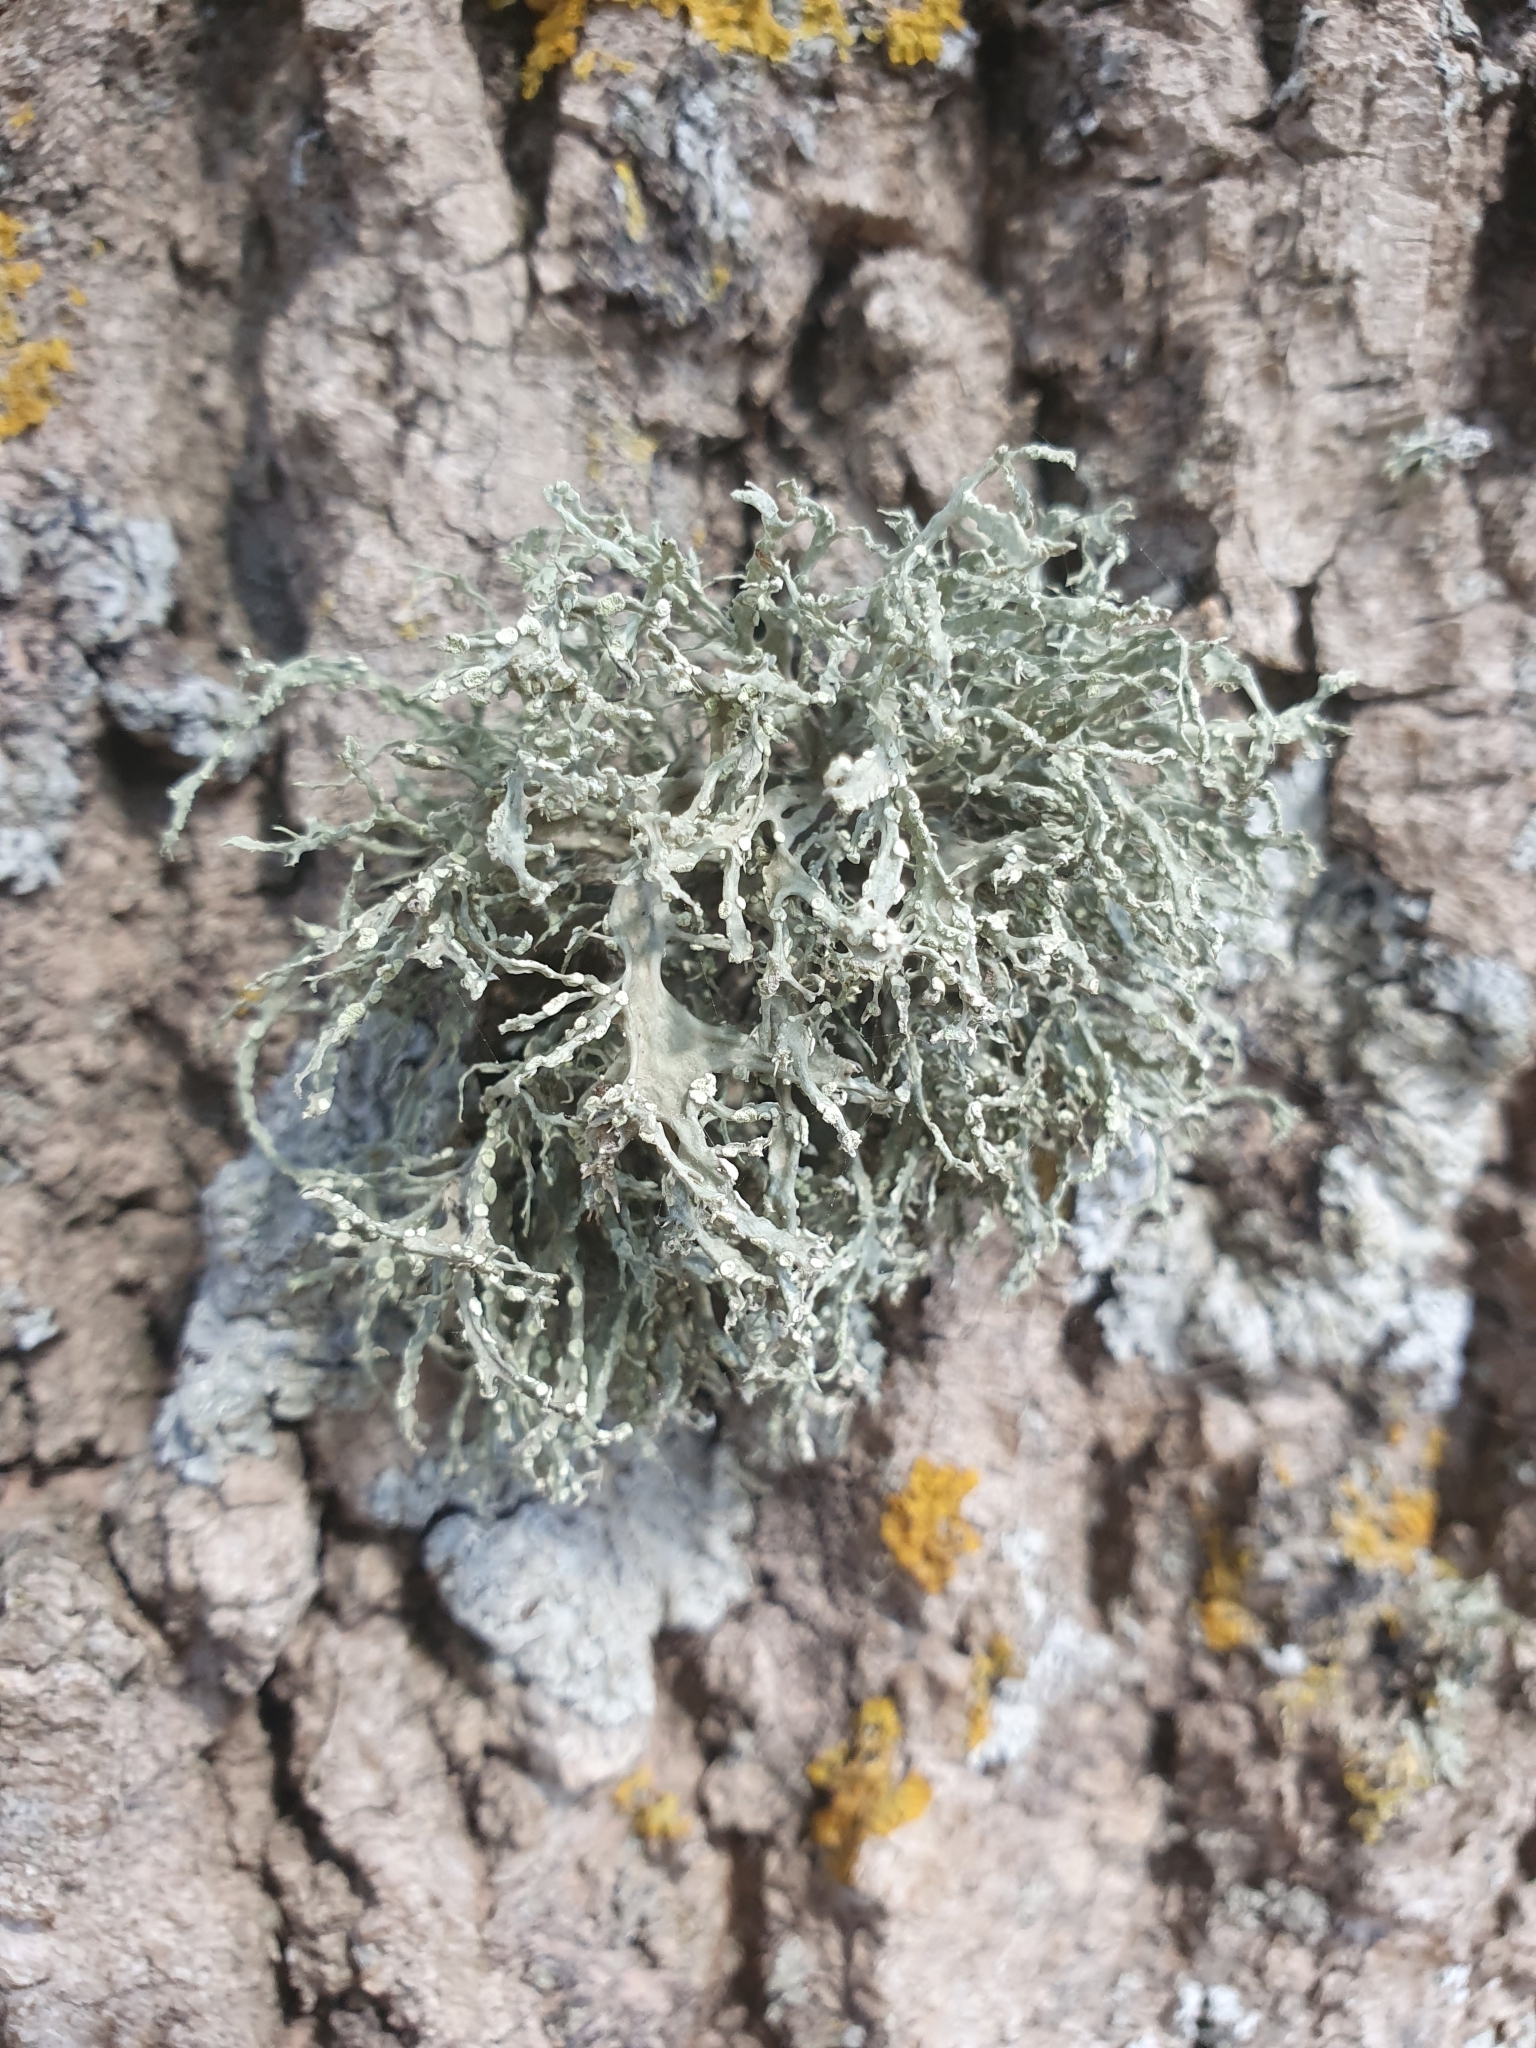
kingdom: Fungi
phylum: Ascomycota
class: Lecanoromycetes
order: Lecanorales
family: Ramalinaceae
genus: Ramalina
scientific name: Ramalina farinacea
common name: Farinose cartilage lichen
